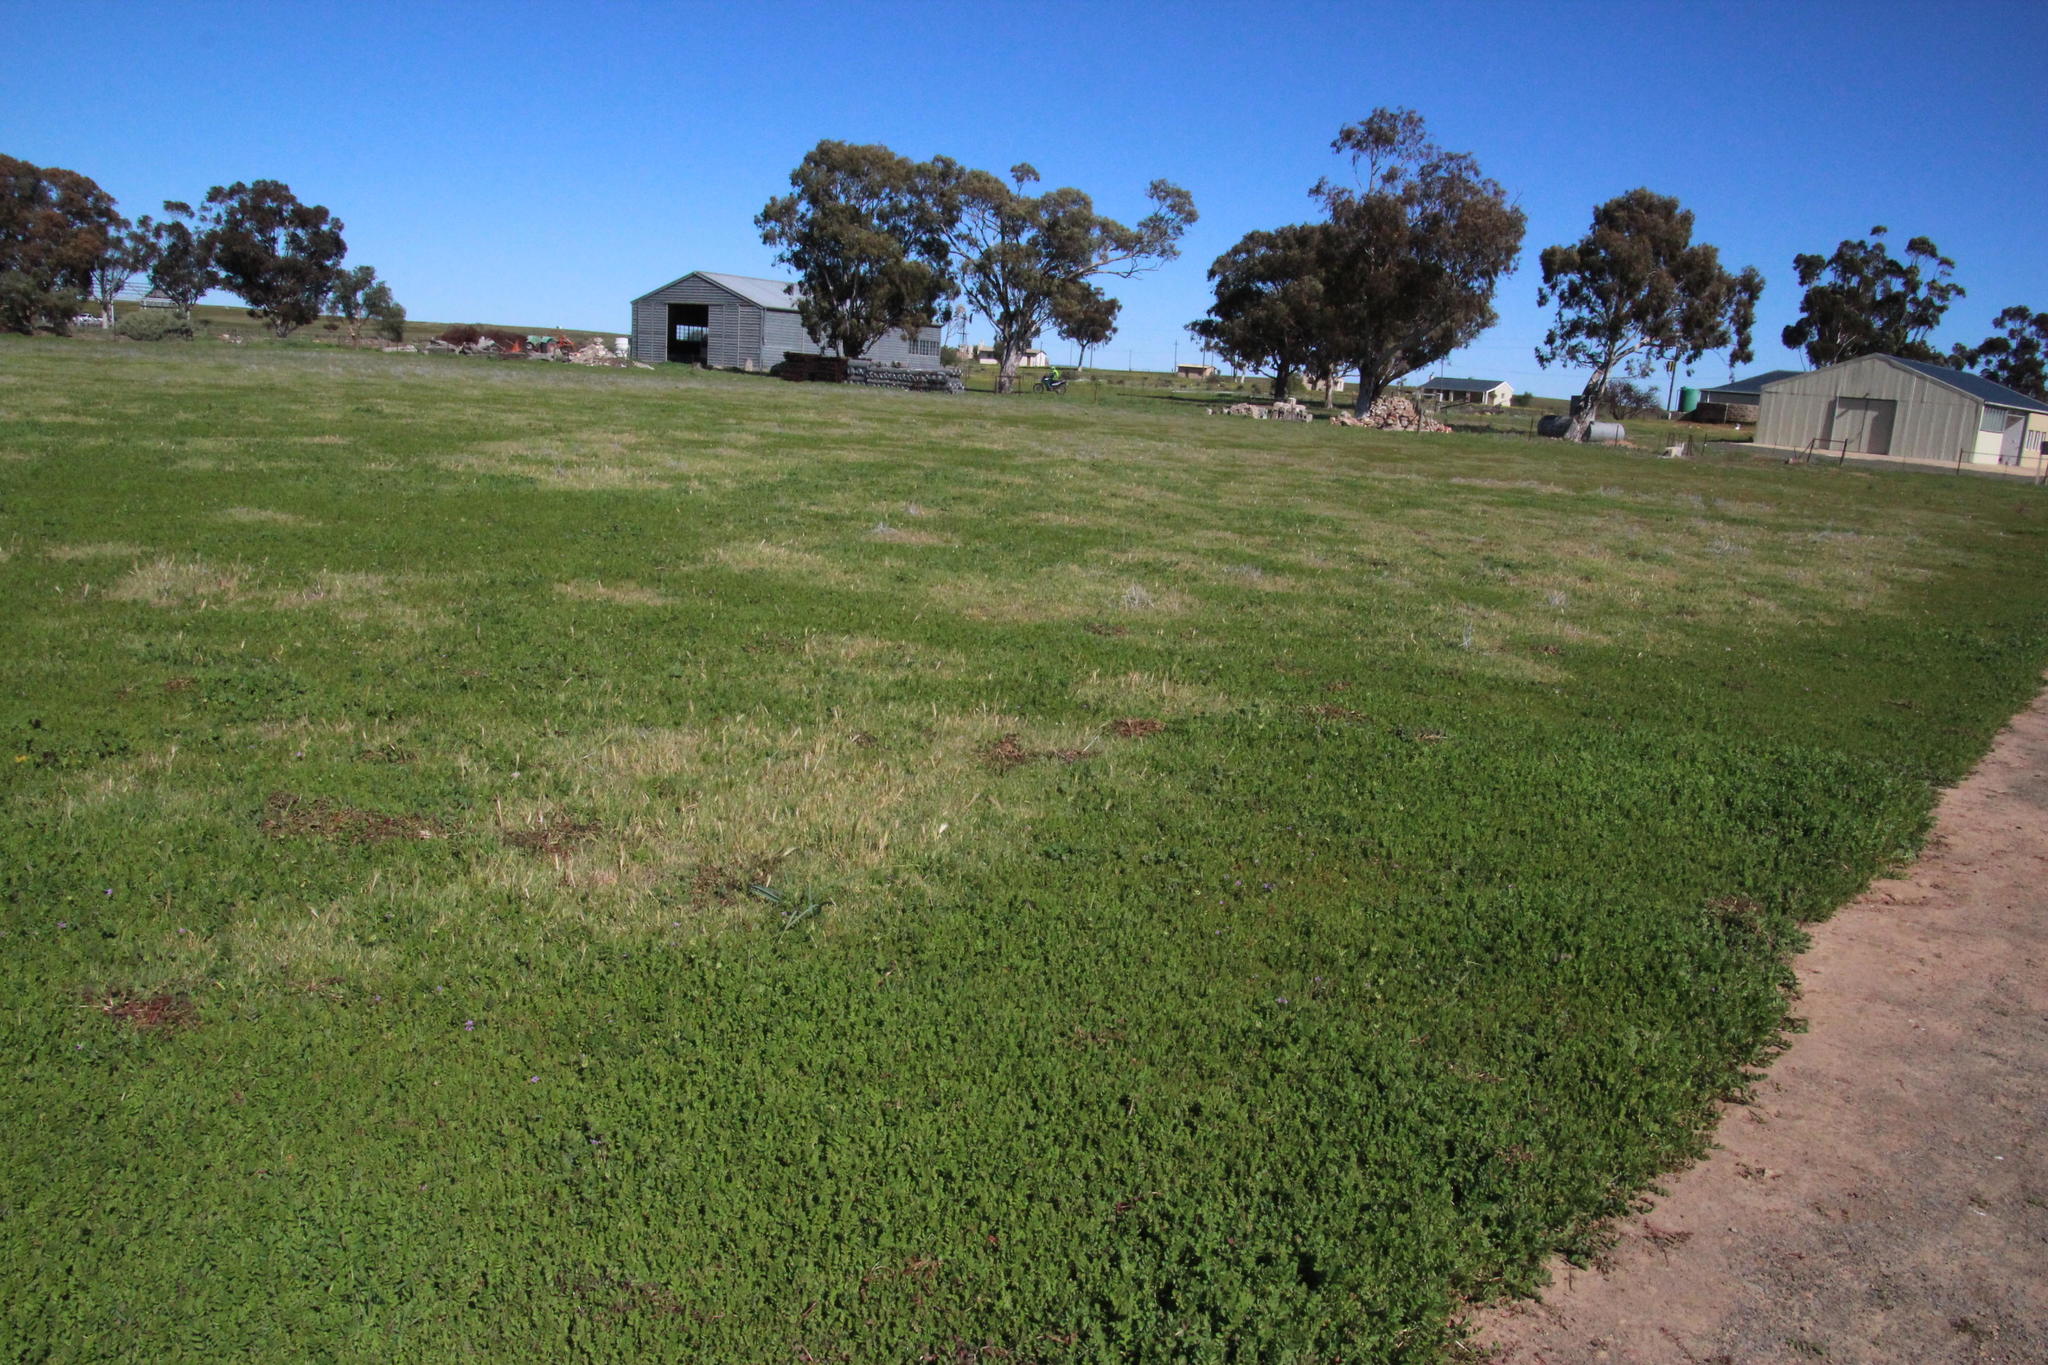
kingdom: Plantae
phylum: Tracheophyta
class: Magnoliopsida
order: Geraniales
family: Geraniaceae
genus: Erodium
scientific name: Erodium moschatum
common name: Musk stork's-bill
